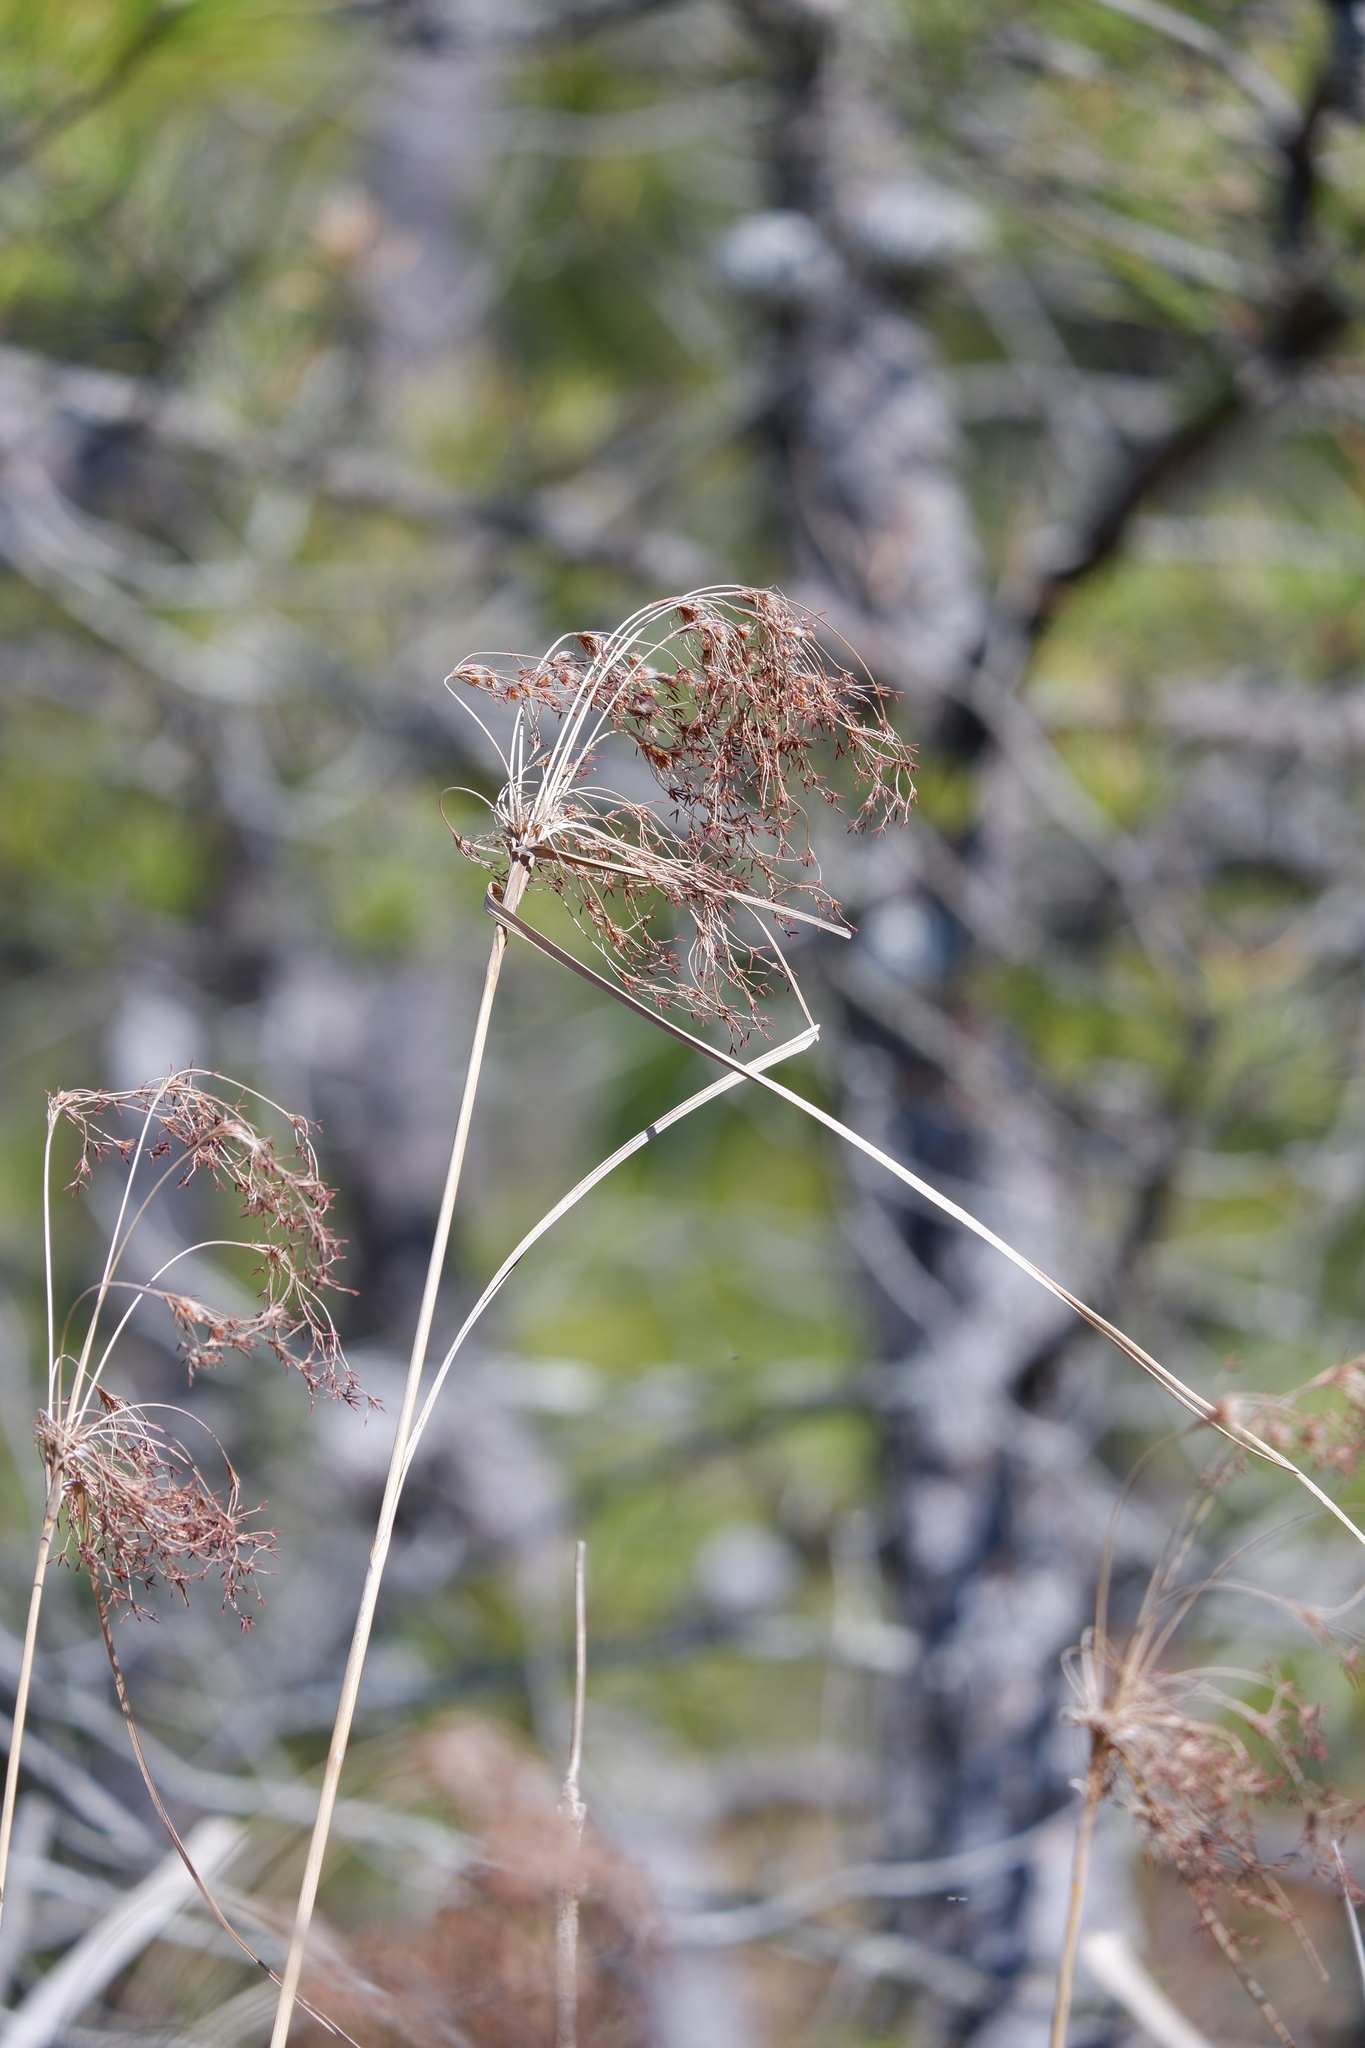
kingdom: Plantae
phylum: Tracheophyta
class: Liliopsida
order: Poales
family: Cyperaceae
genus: Scirpus
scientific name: Scirpus cyperinus
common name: Black-sheathed bulrush
